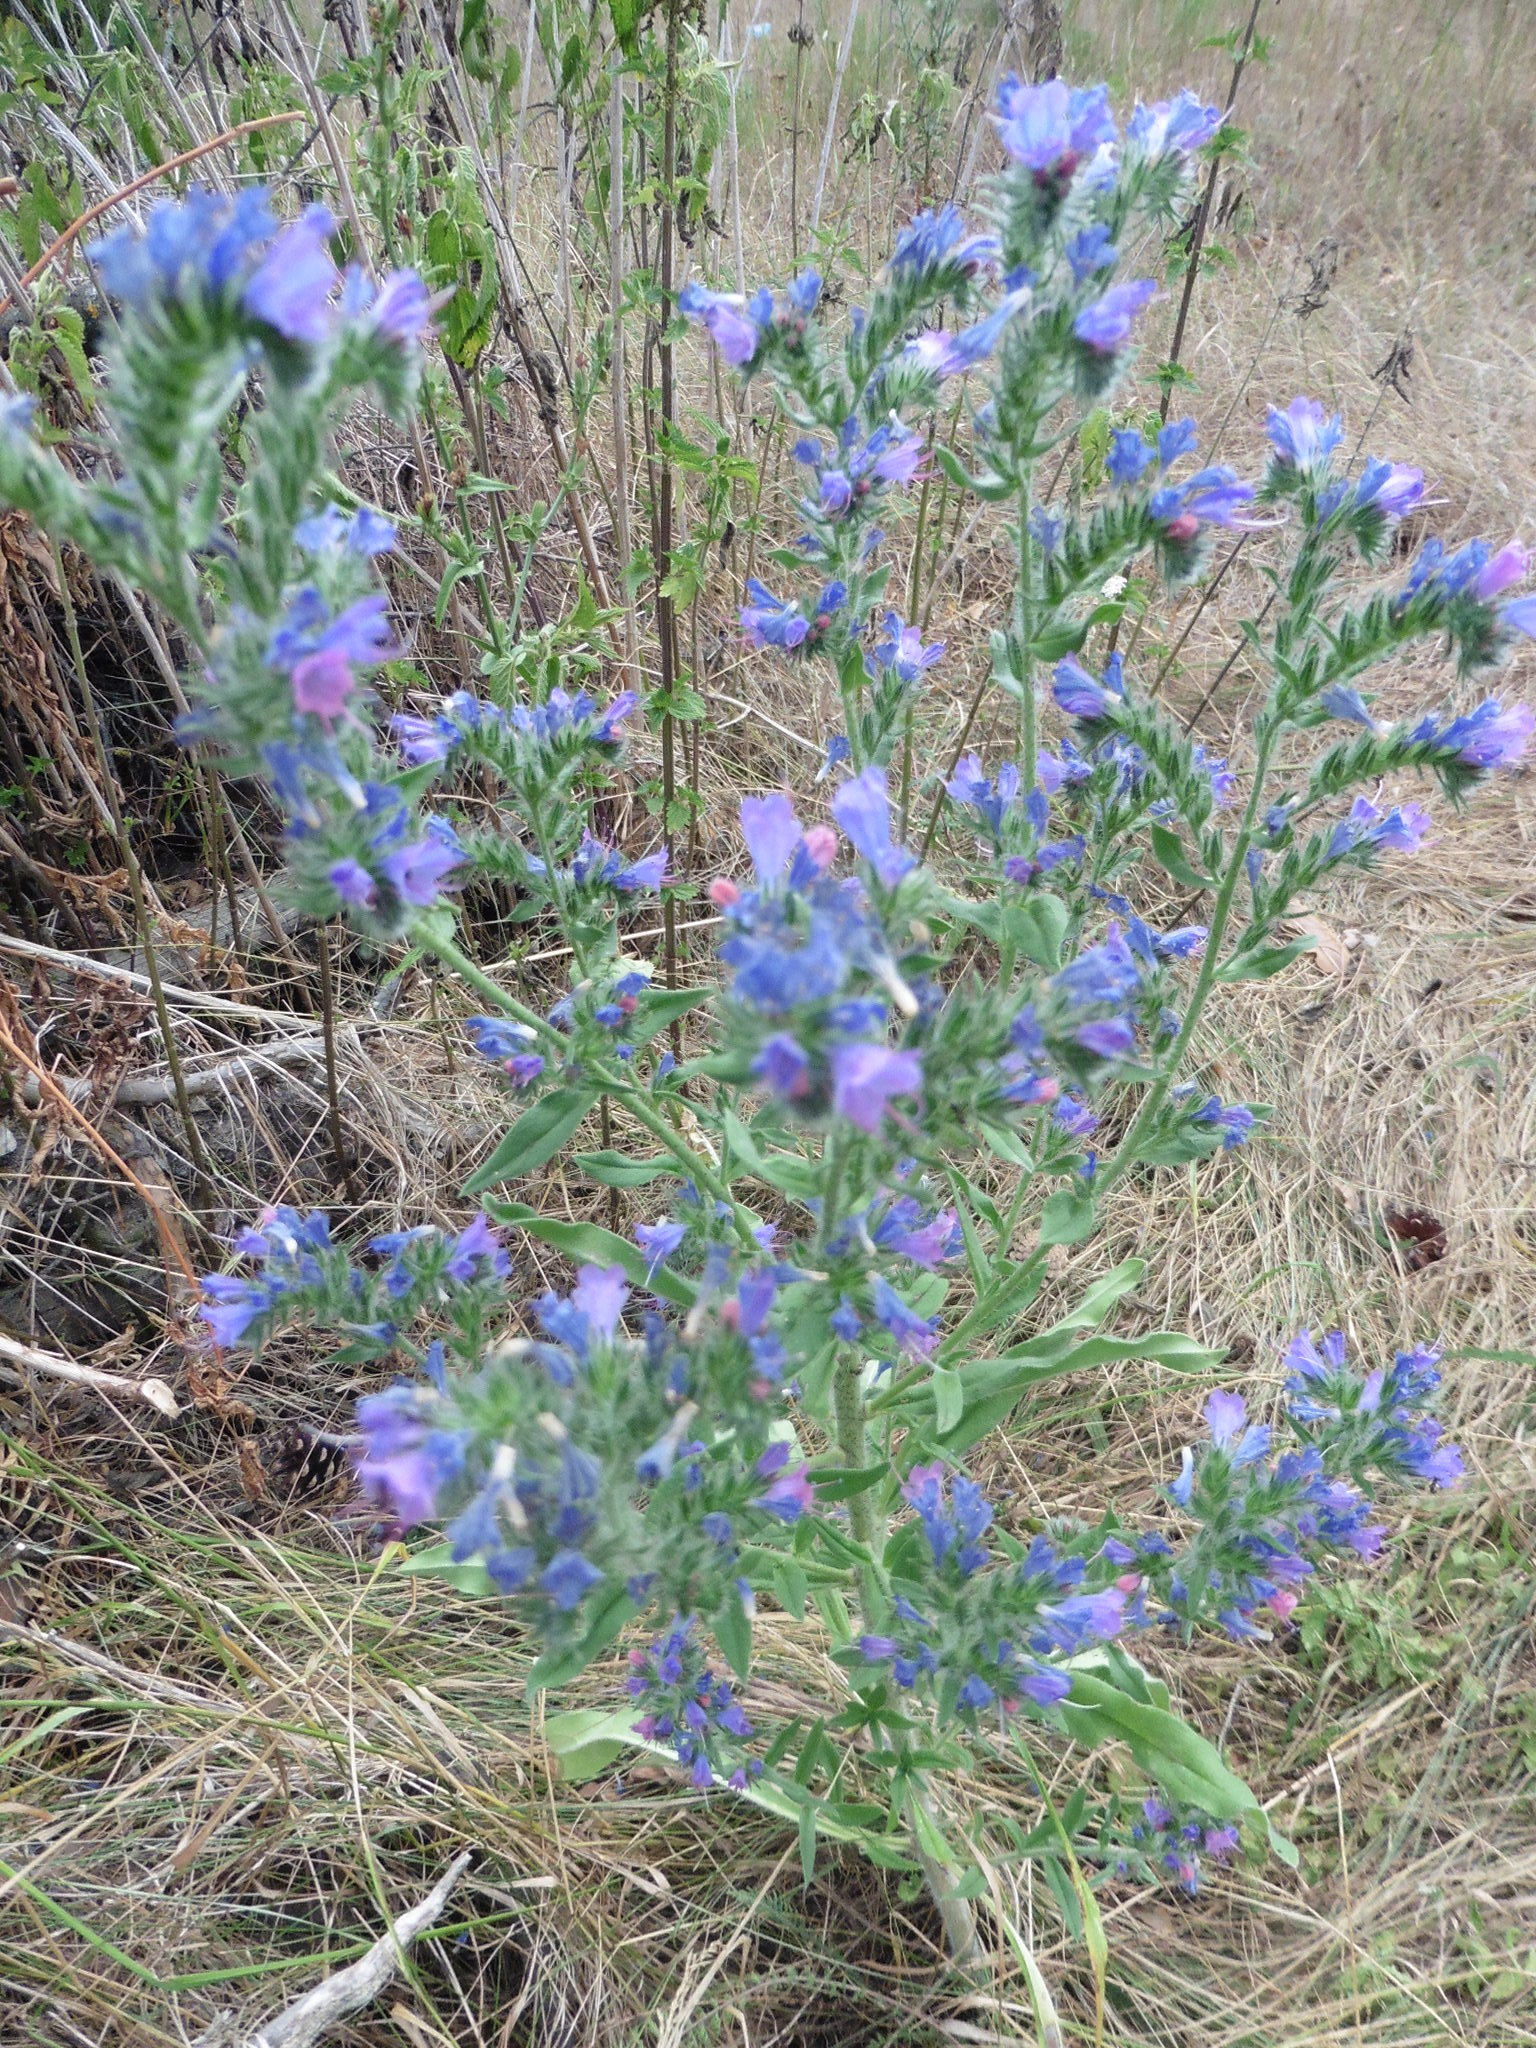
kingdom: Plantae
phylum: Tracheophyta
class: Magnoliopsida
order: Boraginales
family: Boraginaceae
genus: Echium
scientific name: Echium vulgare
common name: Common viper's bugloss
